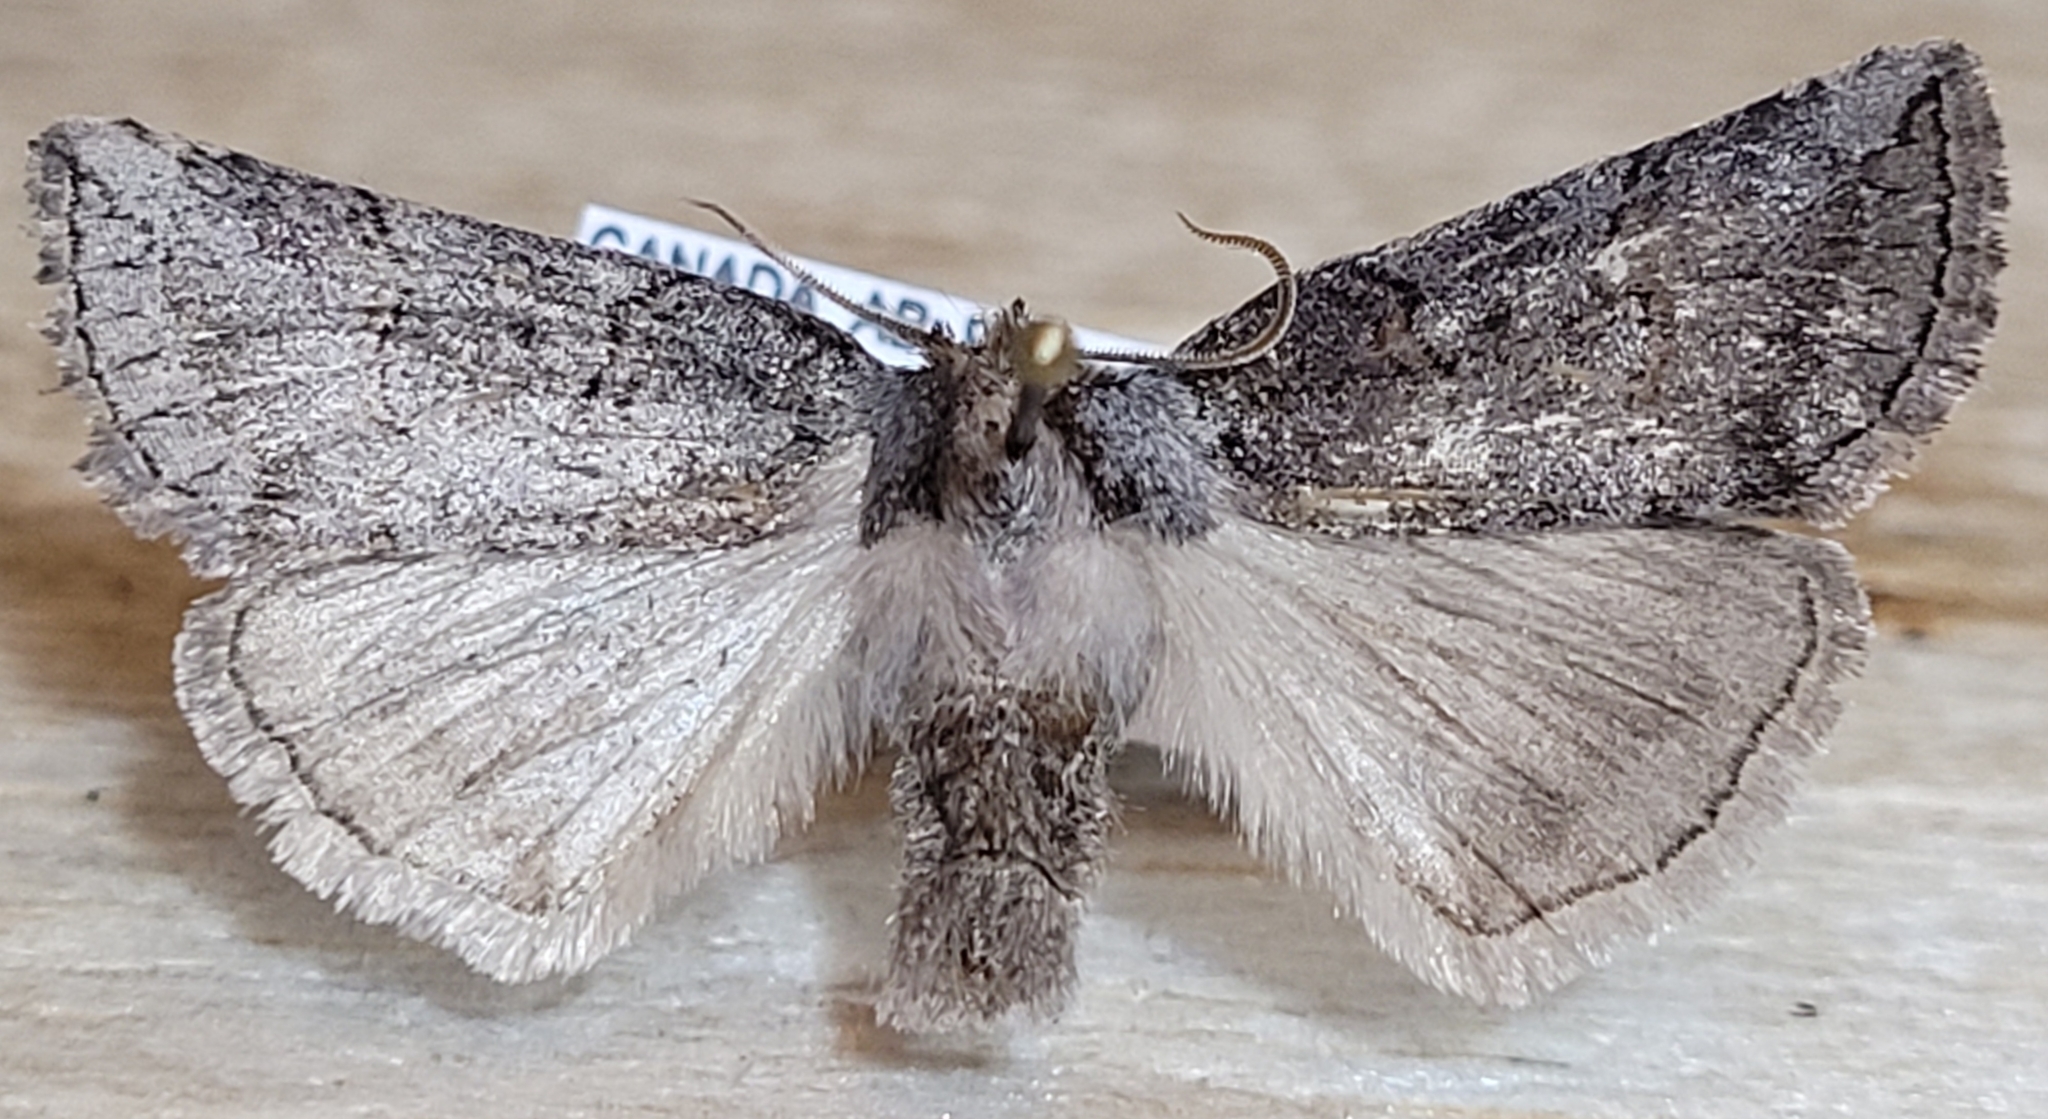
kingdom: Animalia
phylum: Arthropoda
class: Insecta
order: Lepidoptera
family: Drepanidae
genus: Ceranemota
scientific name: Ceranemota albertae
